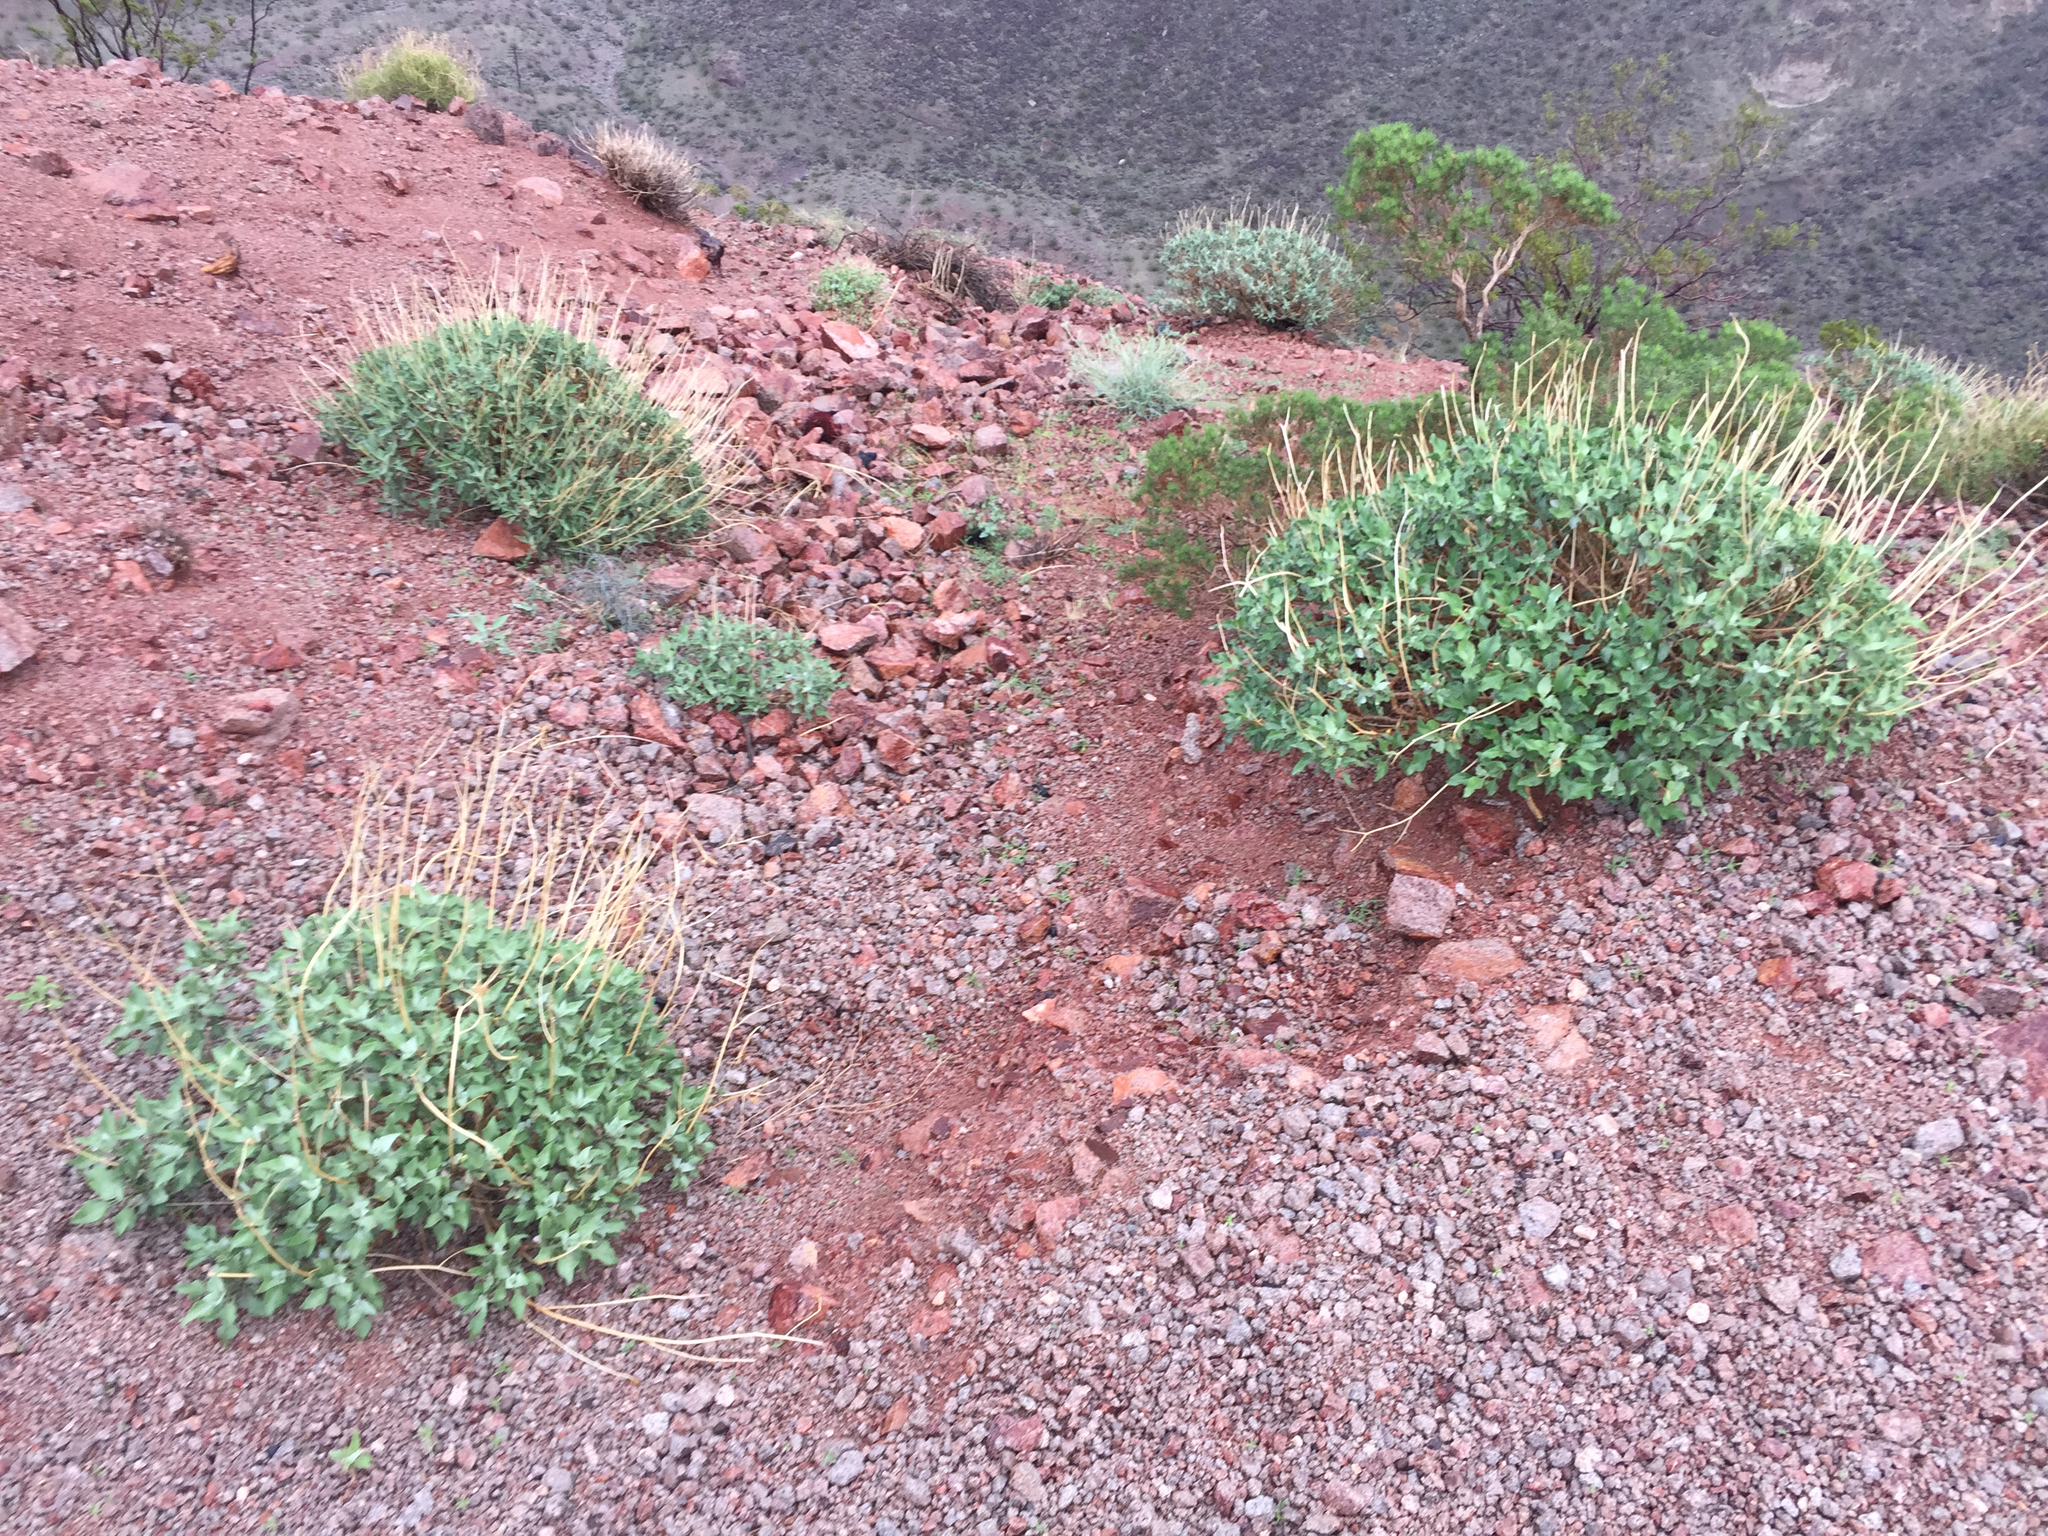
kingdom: Plantae
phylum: Tracheophyta
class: Magnoliopsida
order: Asterales
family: Asteraceae
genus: Encelia
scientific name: Encelia farinosa
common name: Brittlebush
